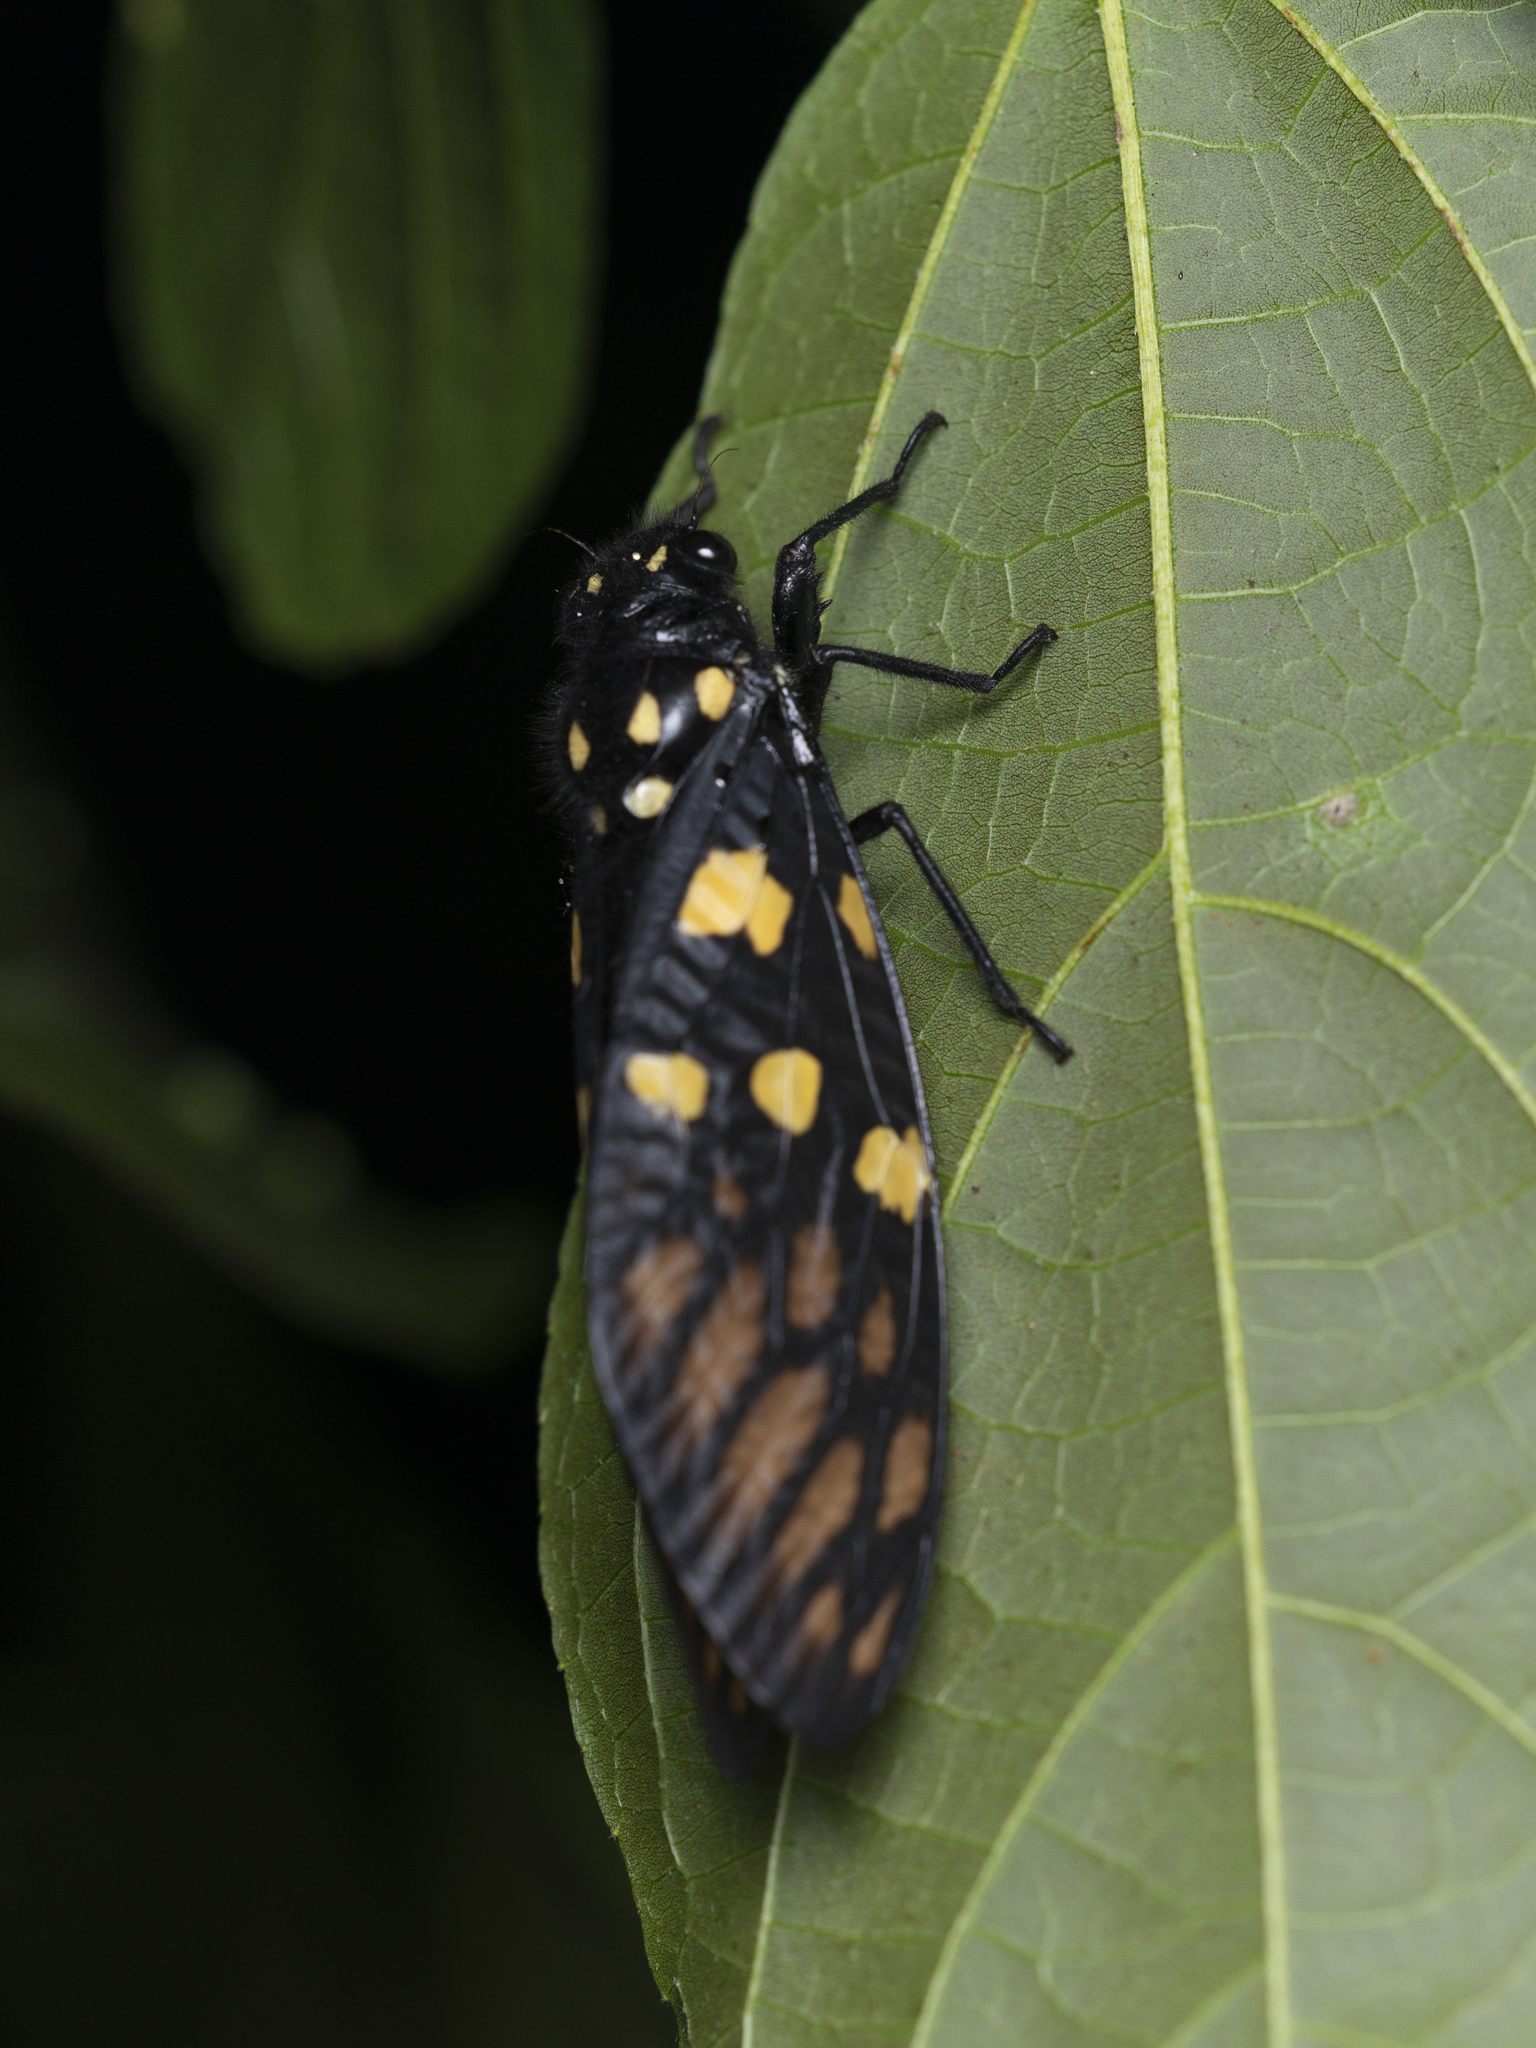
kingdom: Animalia
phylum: Arthropoda
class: Insecta
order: Hemiptera
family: Cicadidae
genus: Gaeana
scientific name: Gaeana maculata
